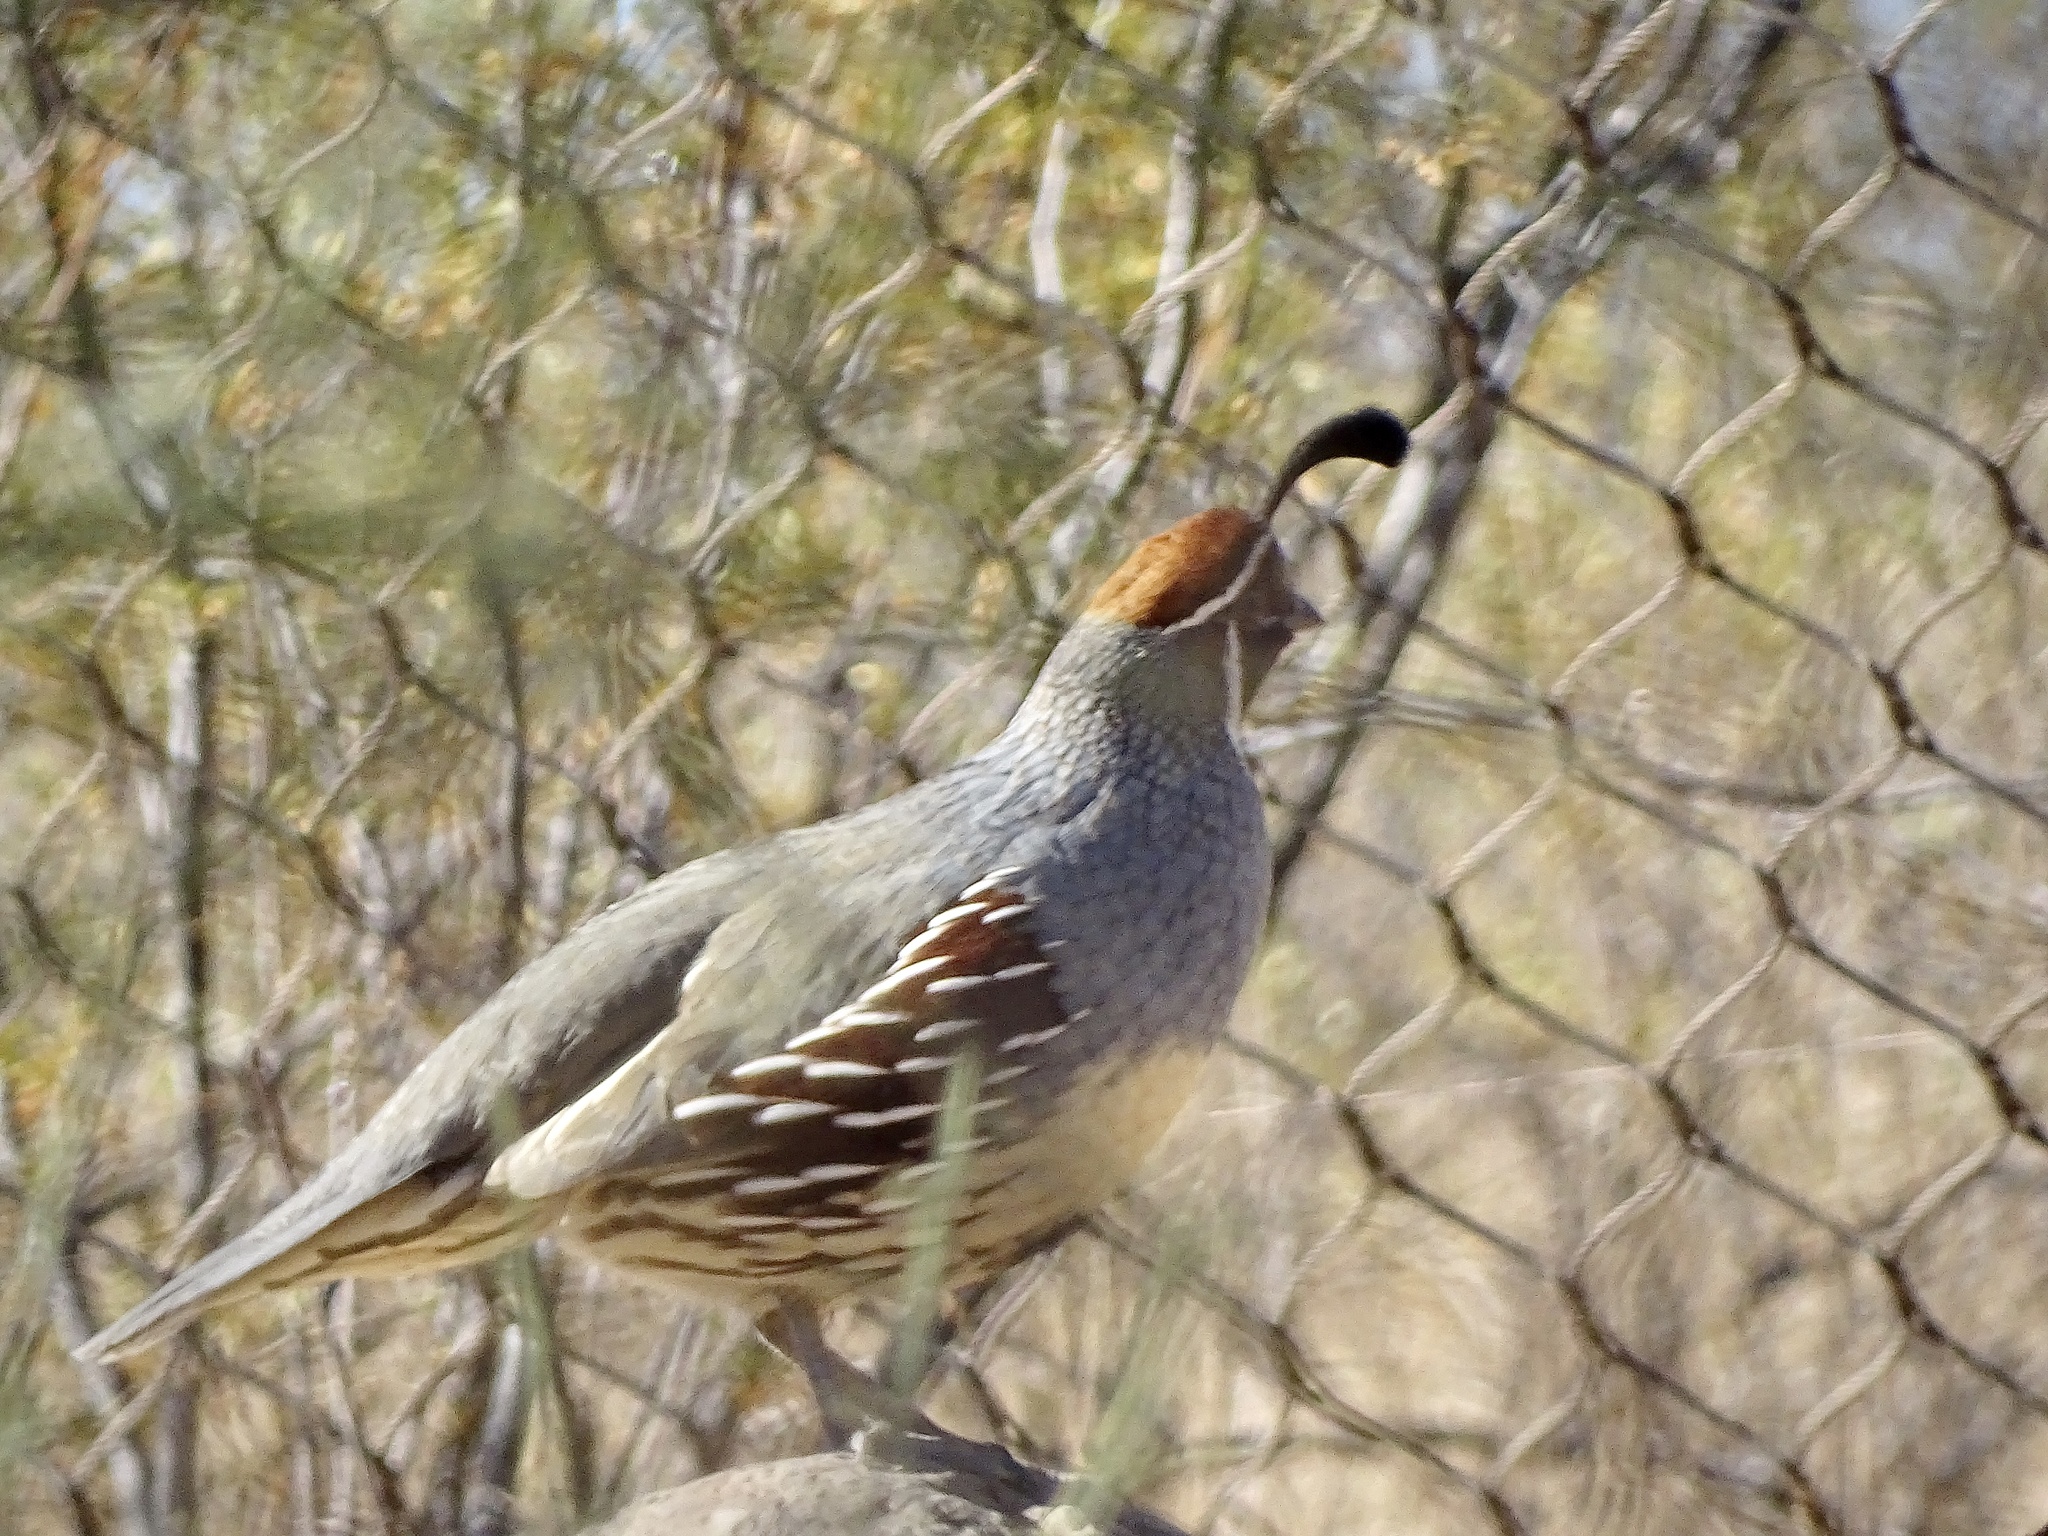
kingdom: Animalia
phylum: Chordata
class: Aves
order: Galliformes
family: Odontophoridae
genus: Callipepla
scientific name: Callipepla gambelii
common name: Gambel's quail
